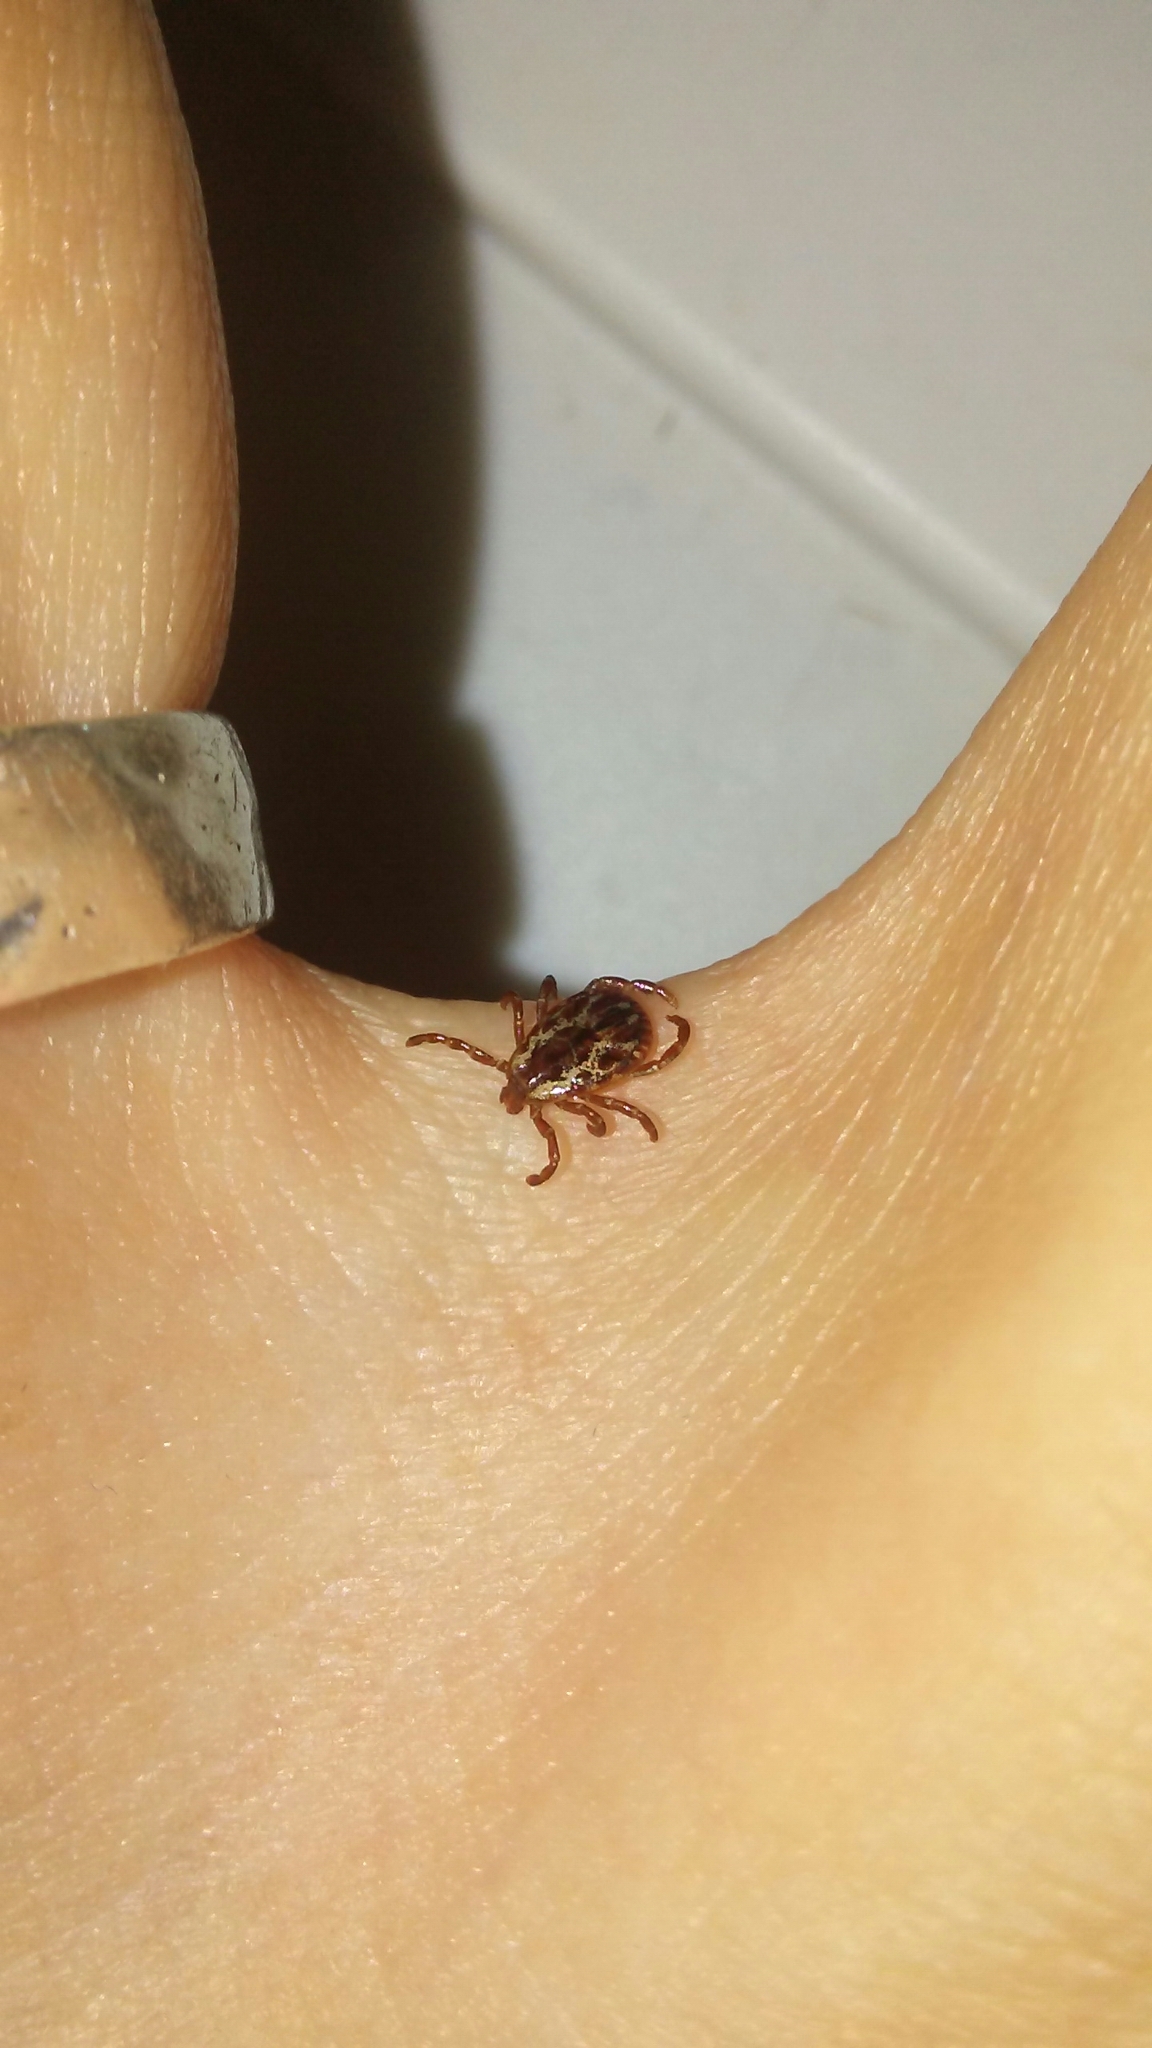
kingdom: Animalia
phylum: Arthropoda
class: Arachnida
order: Ixodida
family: Ixodidae
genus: Dermacentor
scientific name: Dermacentor variabilis
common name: American dog tick
